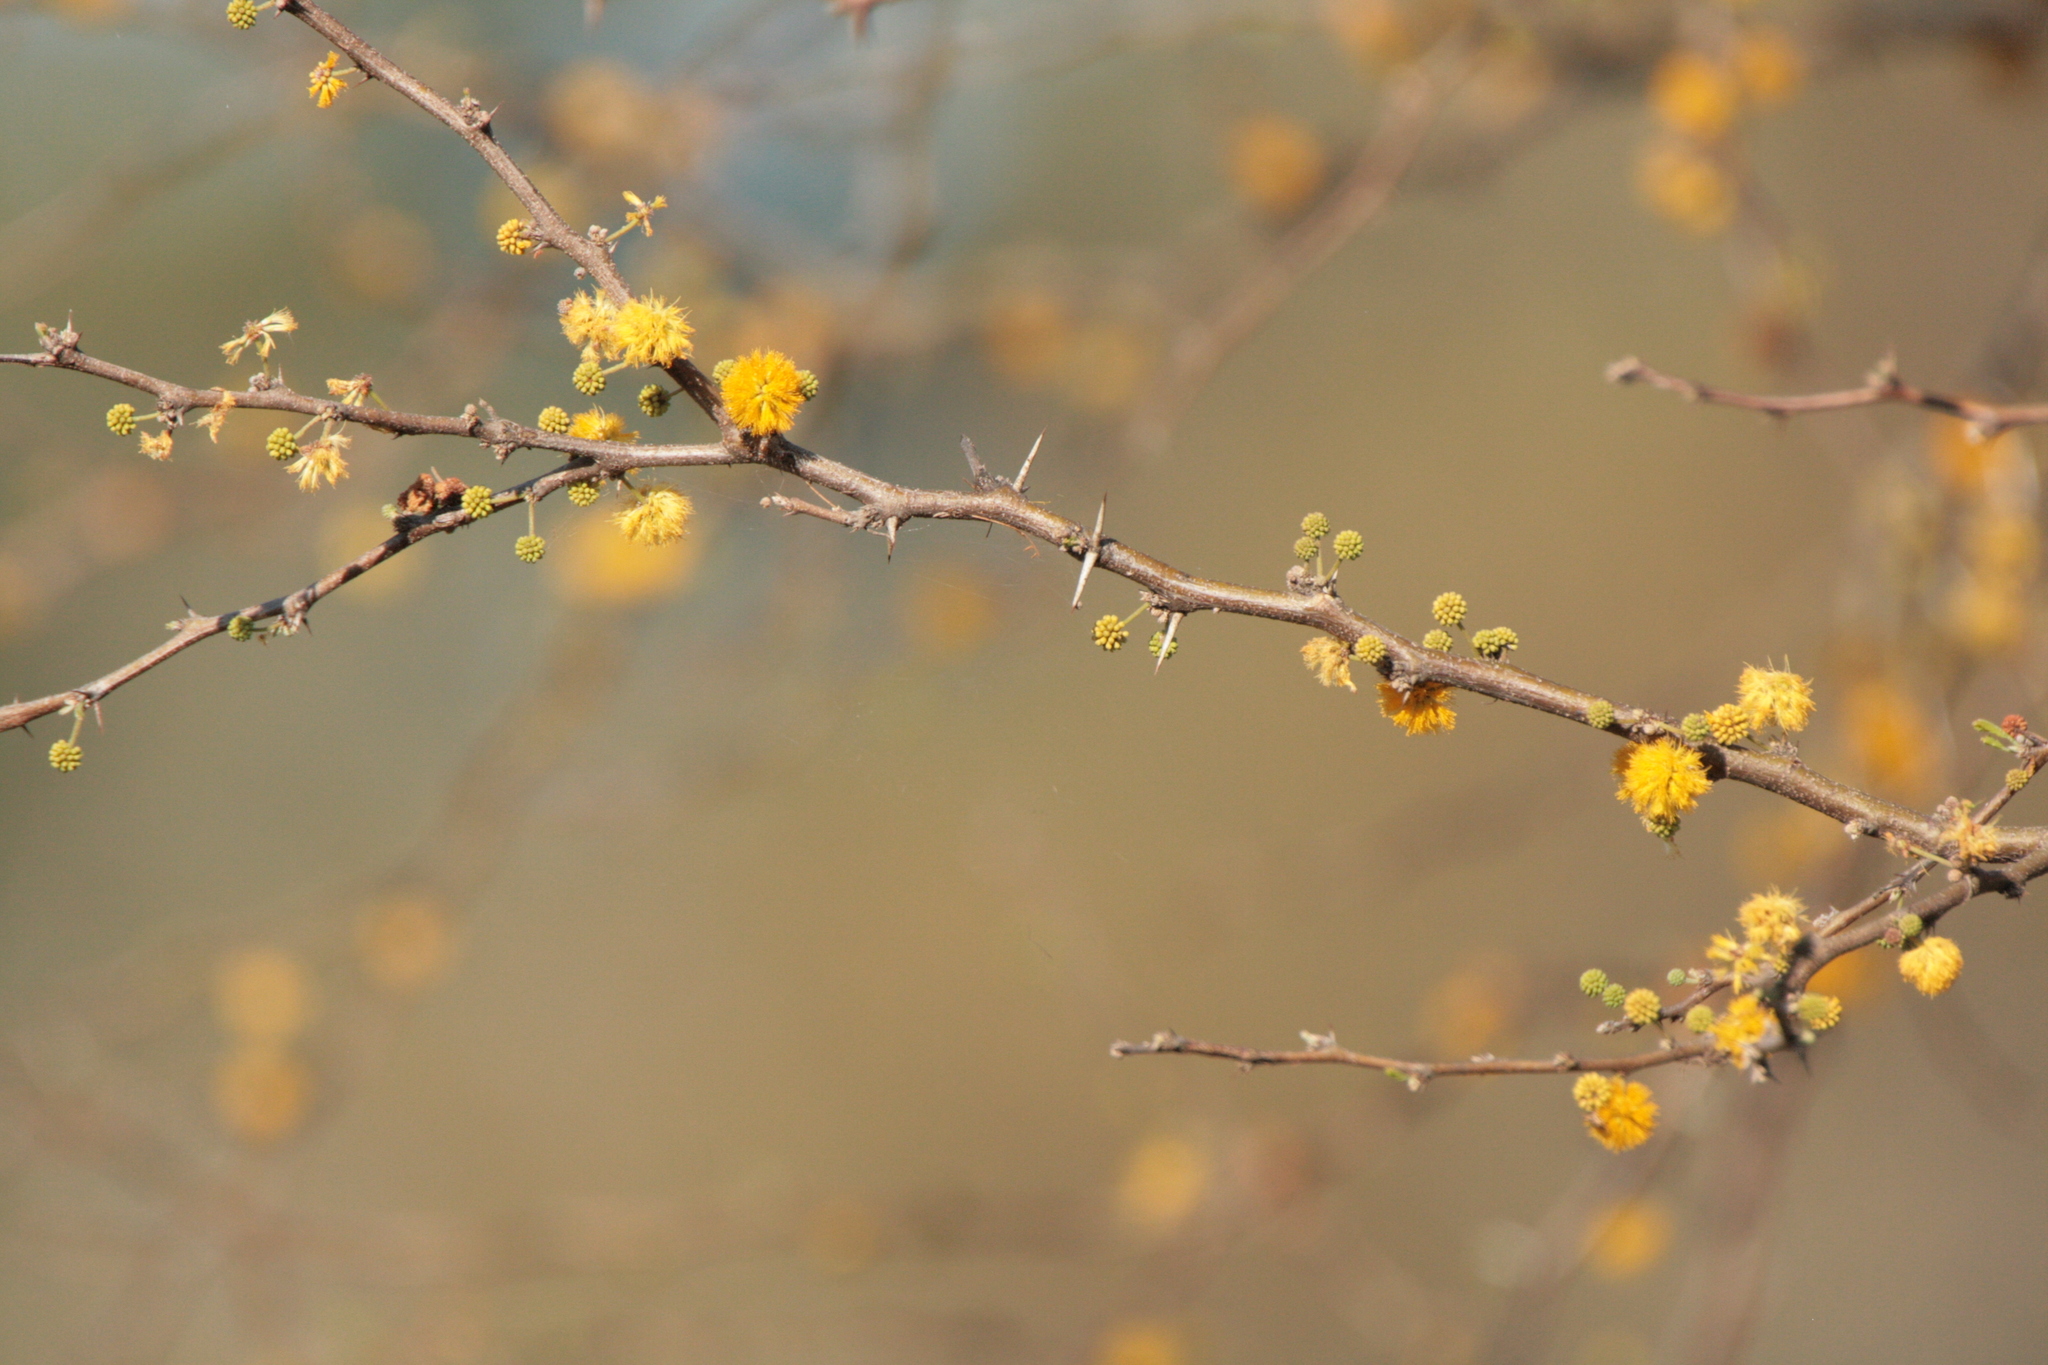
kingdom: Plantae
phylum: Tracheophyta
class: Magnoliopsida
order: Fabales
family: Fabaceae
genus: Vachellia
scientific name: Vachellia caven
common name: Roman cassie
